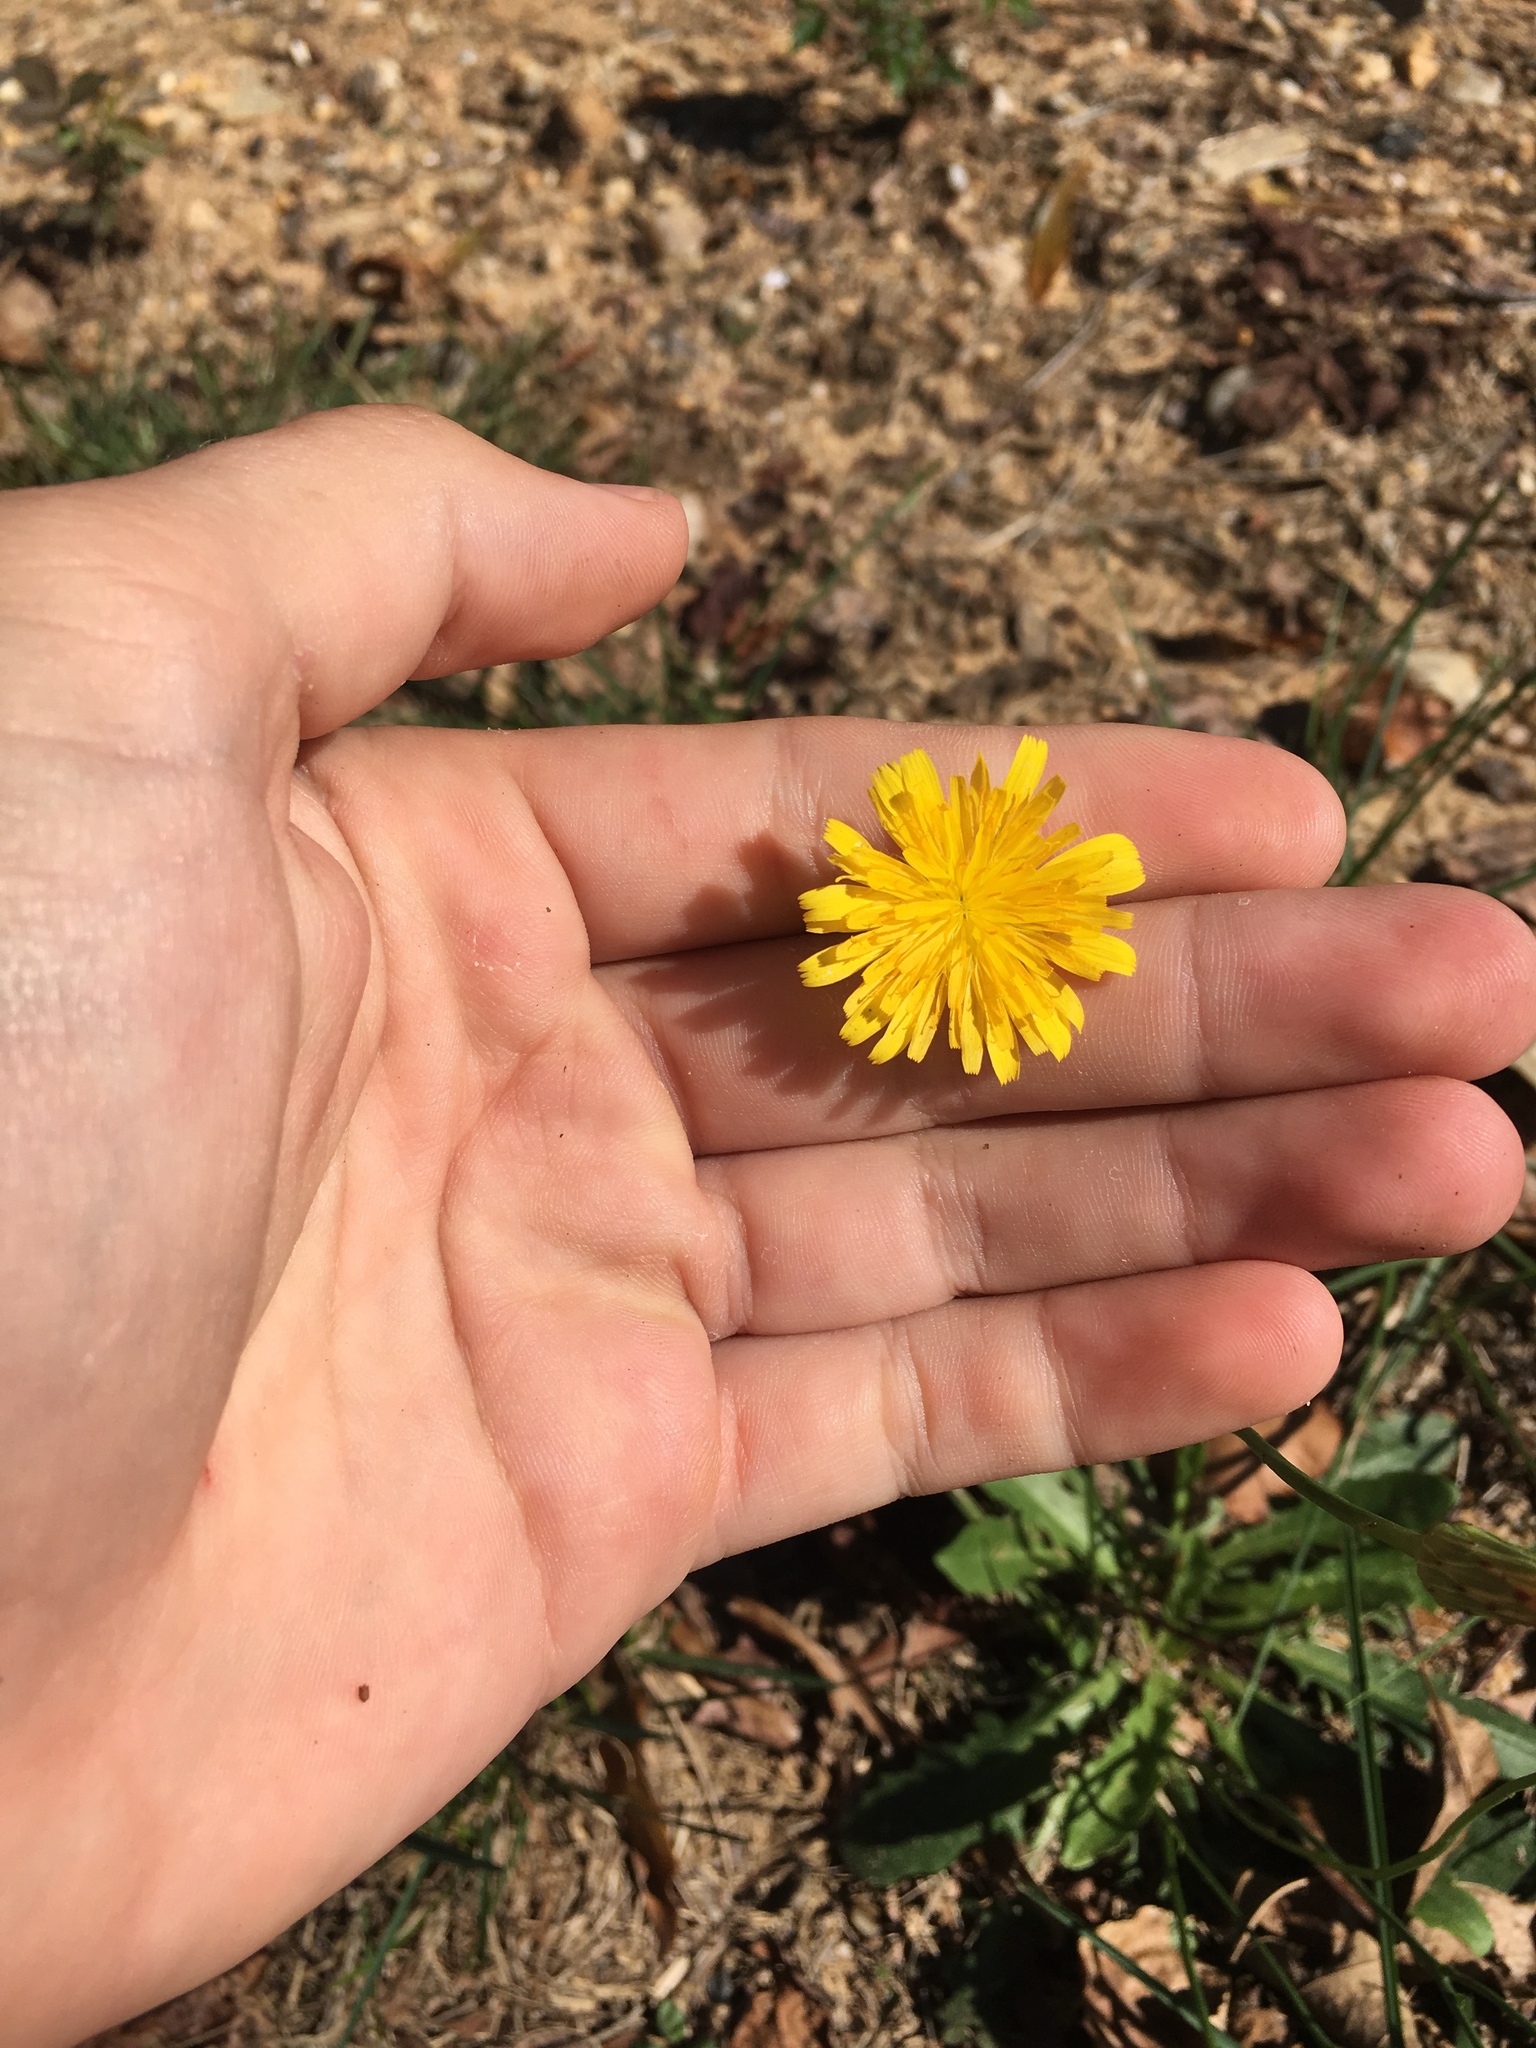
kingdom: Plantae
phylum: Tracheophyta
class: Magnoliopsida
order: Asterales
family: Asteraceae
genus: Hypochaeris
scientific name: Hypochaeris radicata
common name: Flatweed
